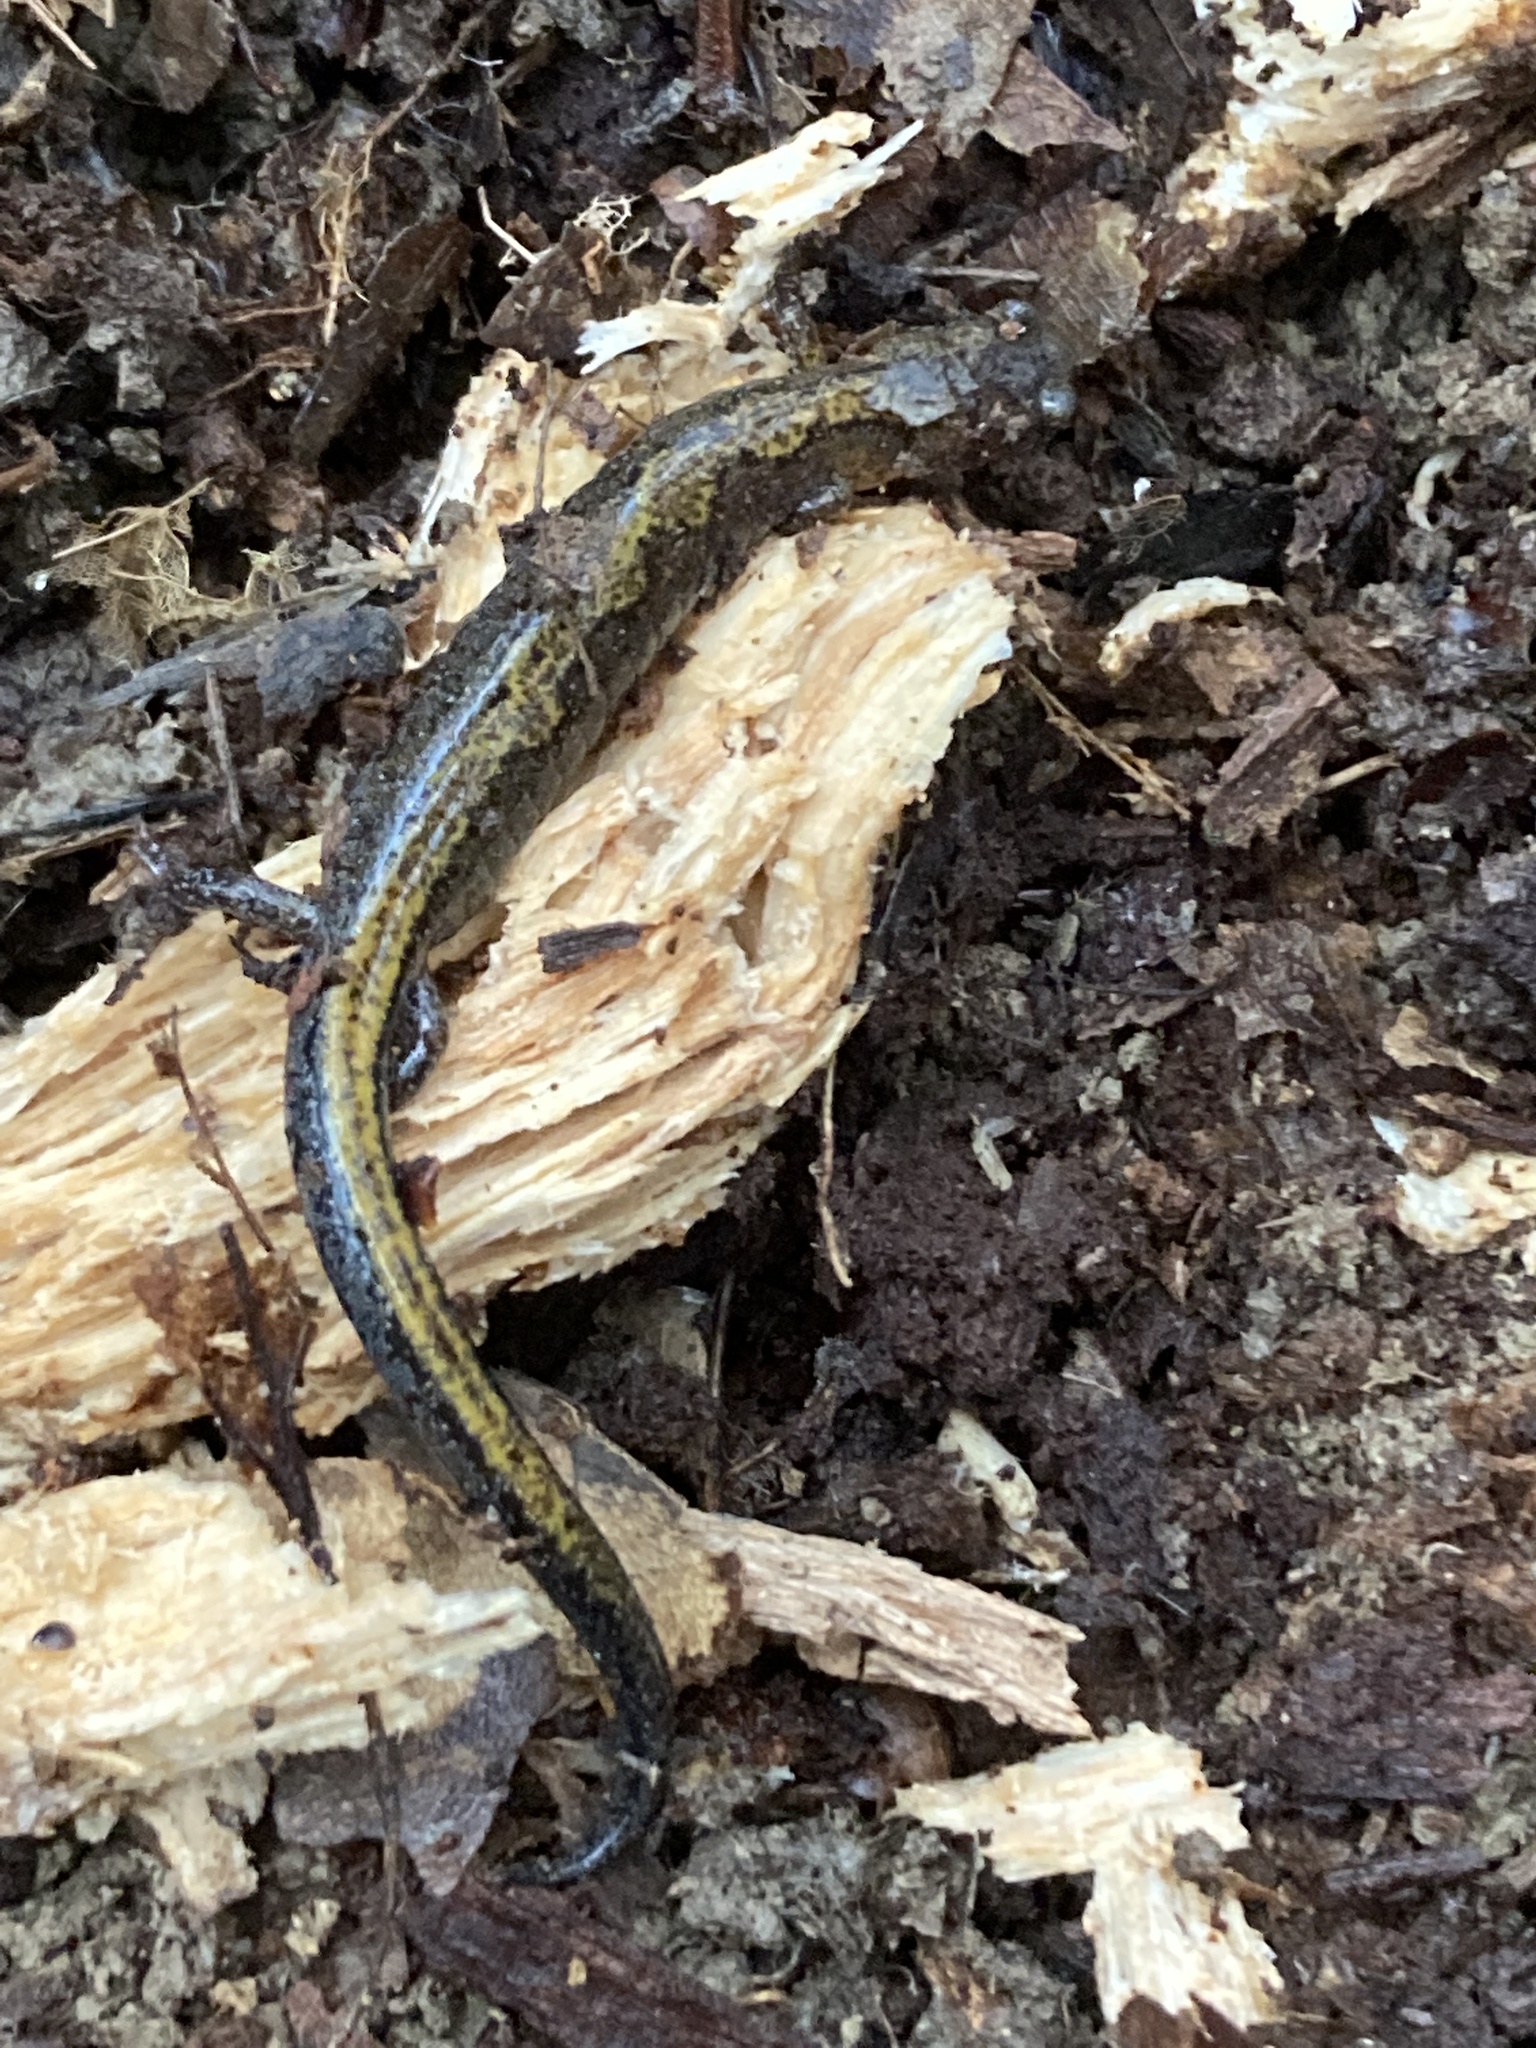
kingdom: Animalia
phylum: Chordata
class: Amphibia
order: Caudata
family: Plethodontidae
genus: Plethodon
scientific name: Plethodon dorsalis
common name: Northern zigzag salamander
